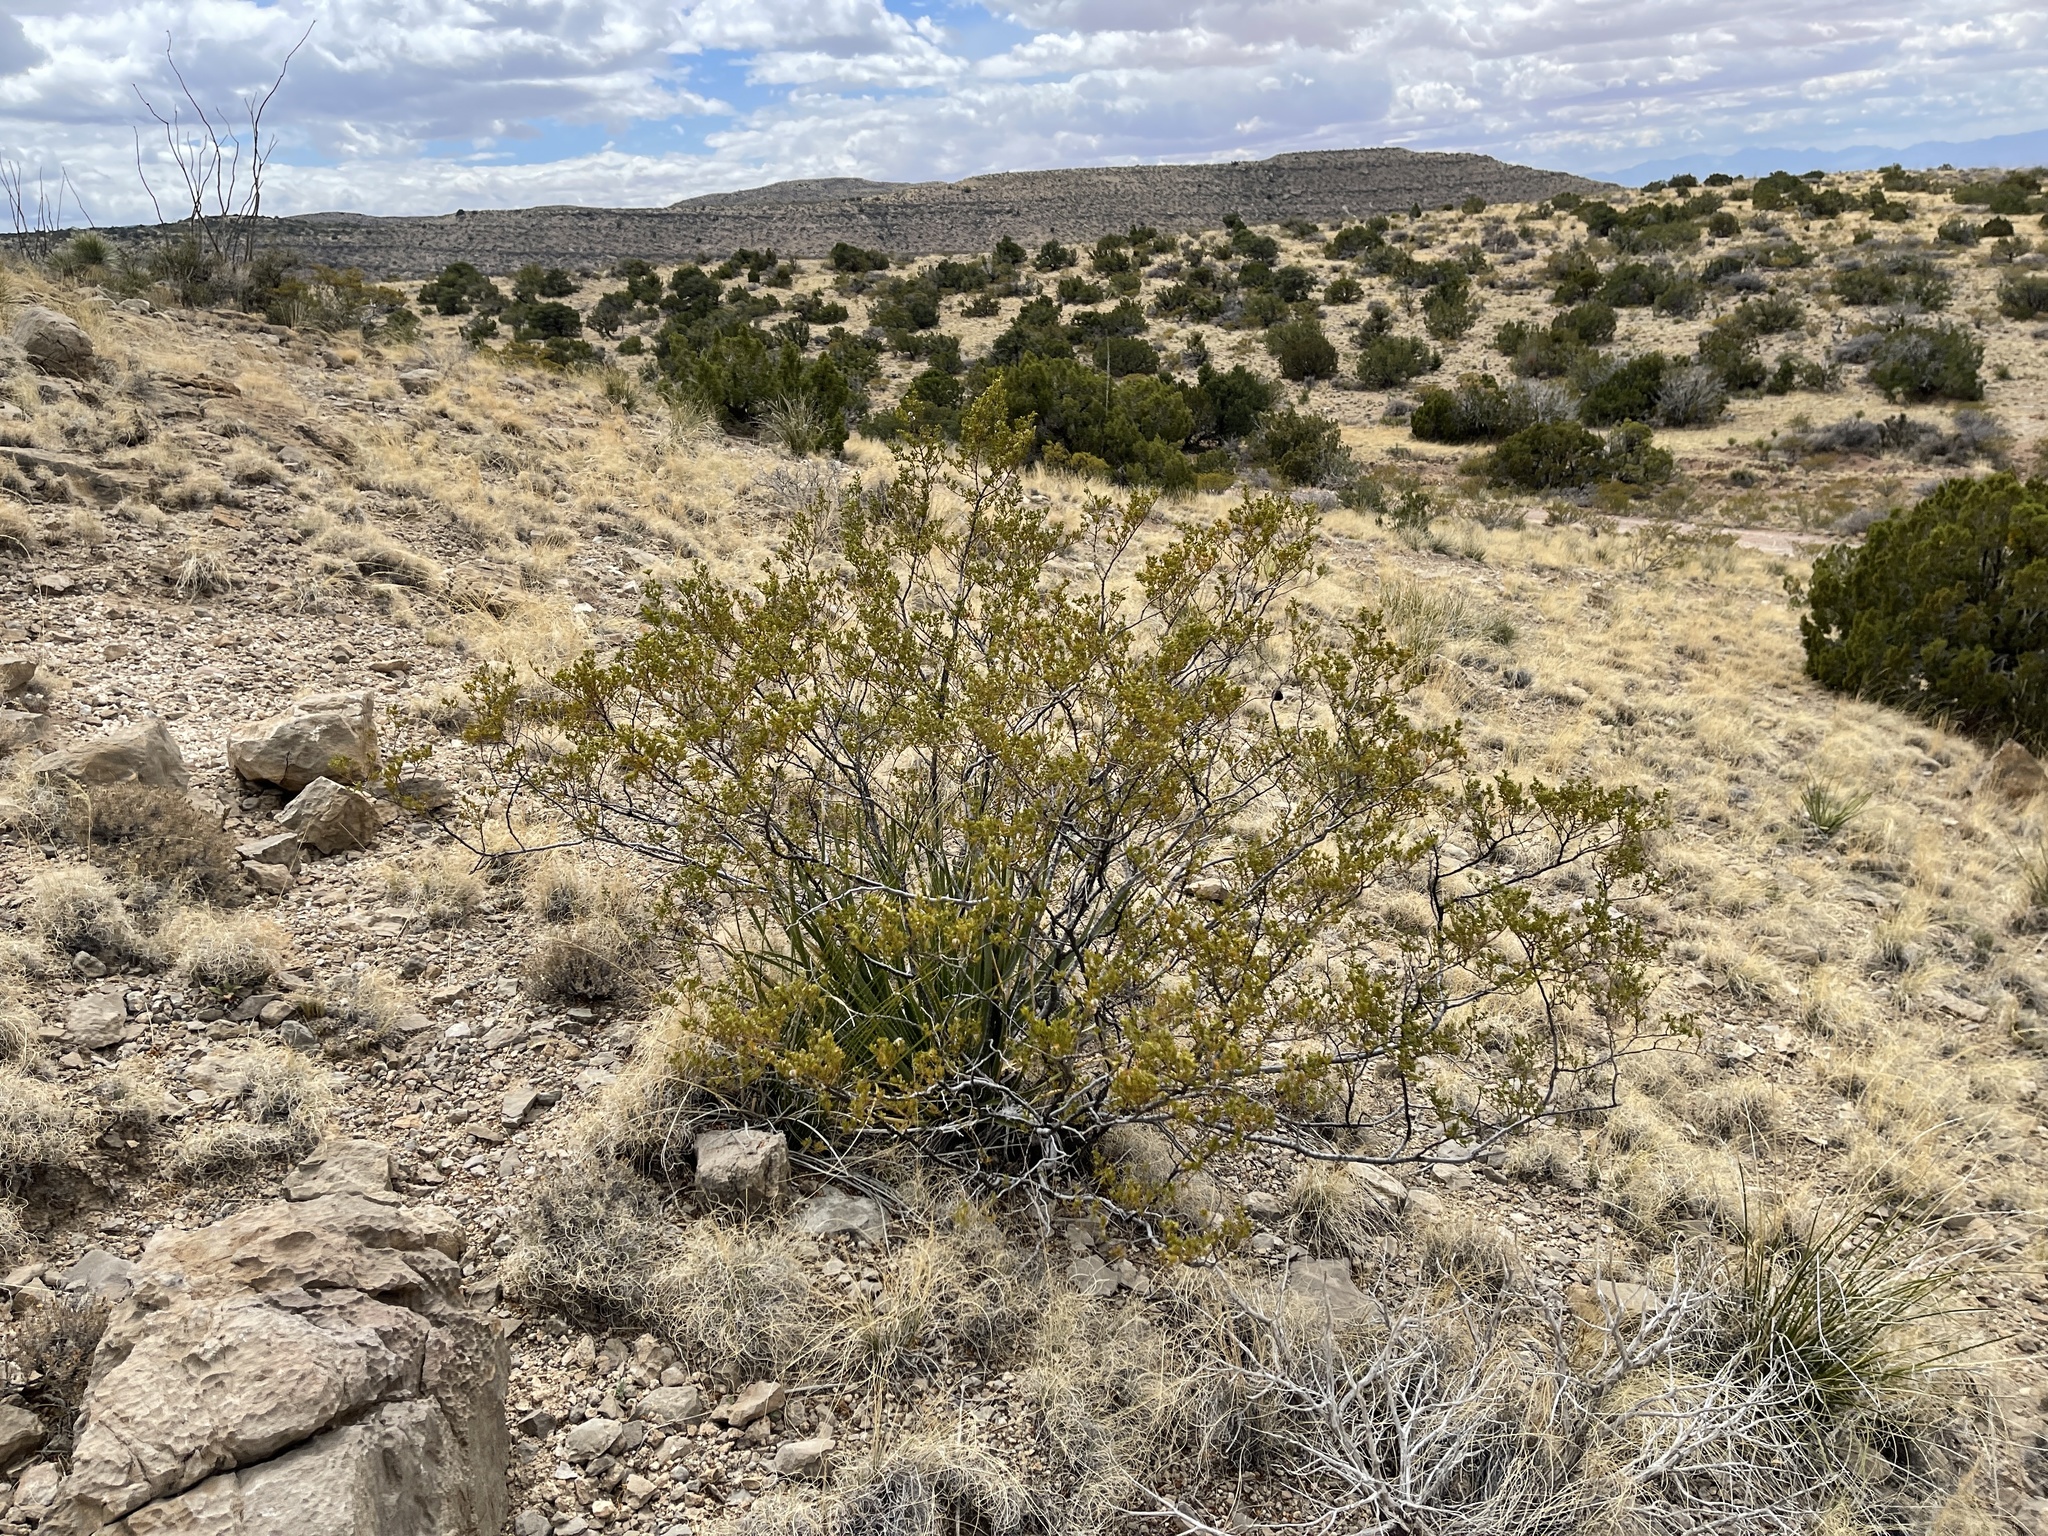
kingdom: Plantae
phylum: Tracheophyta
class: Magnoliopsida
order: Zygophyllales
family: Zygophyllaceae
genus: Larrea
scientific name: Larrea tridentata
